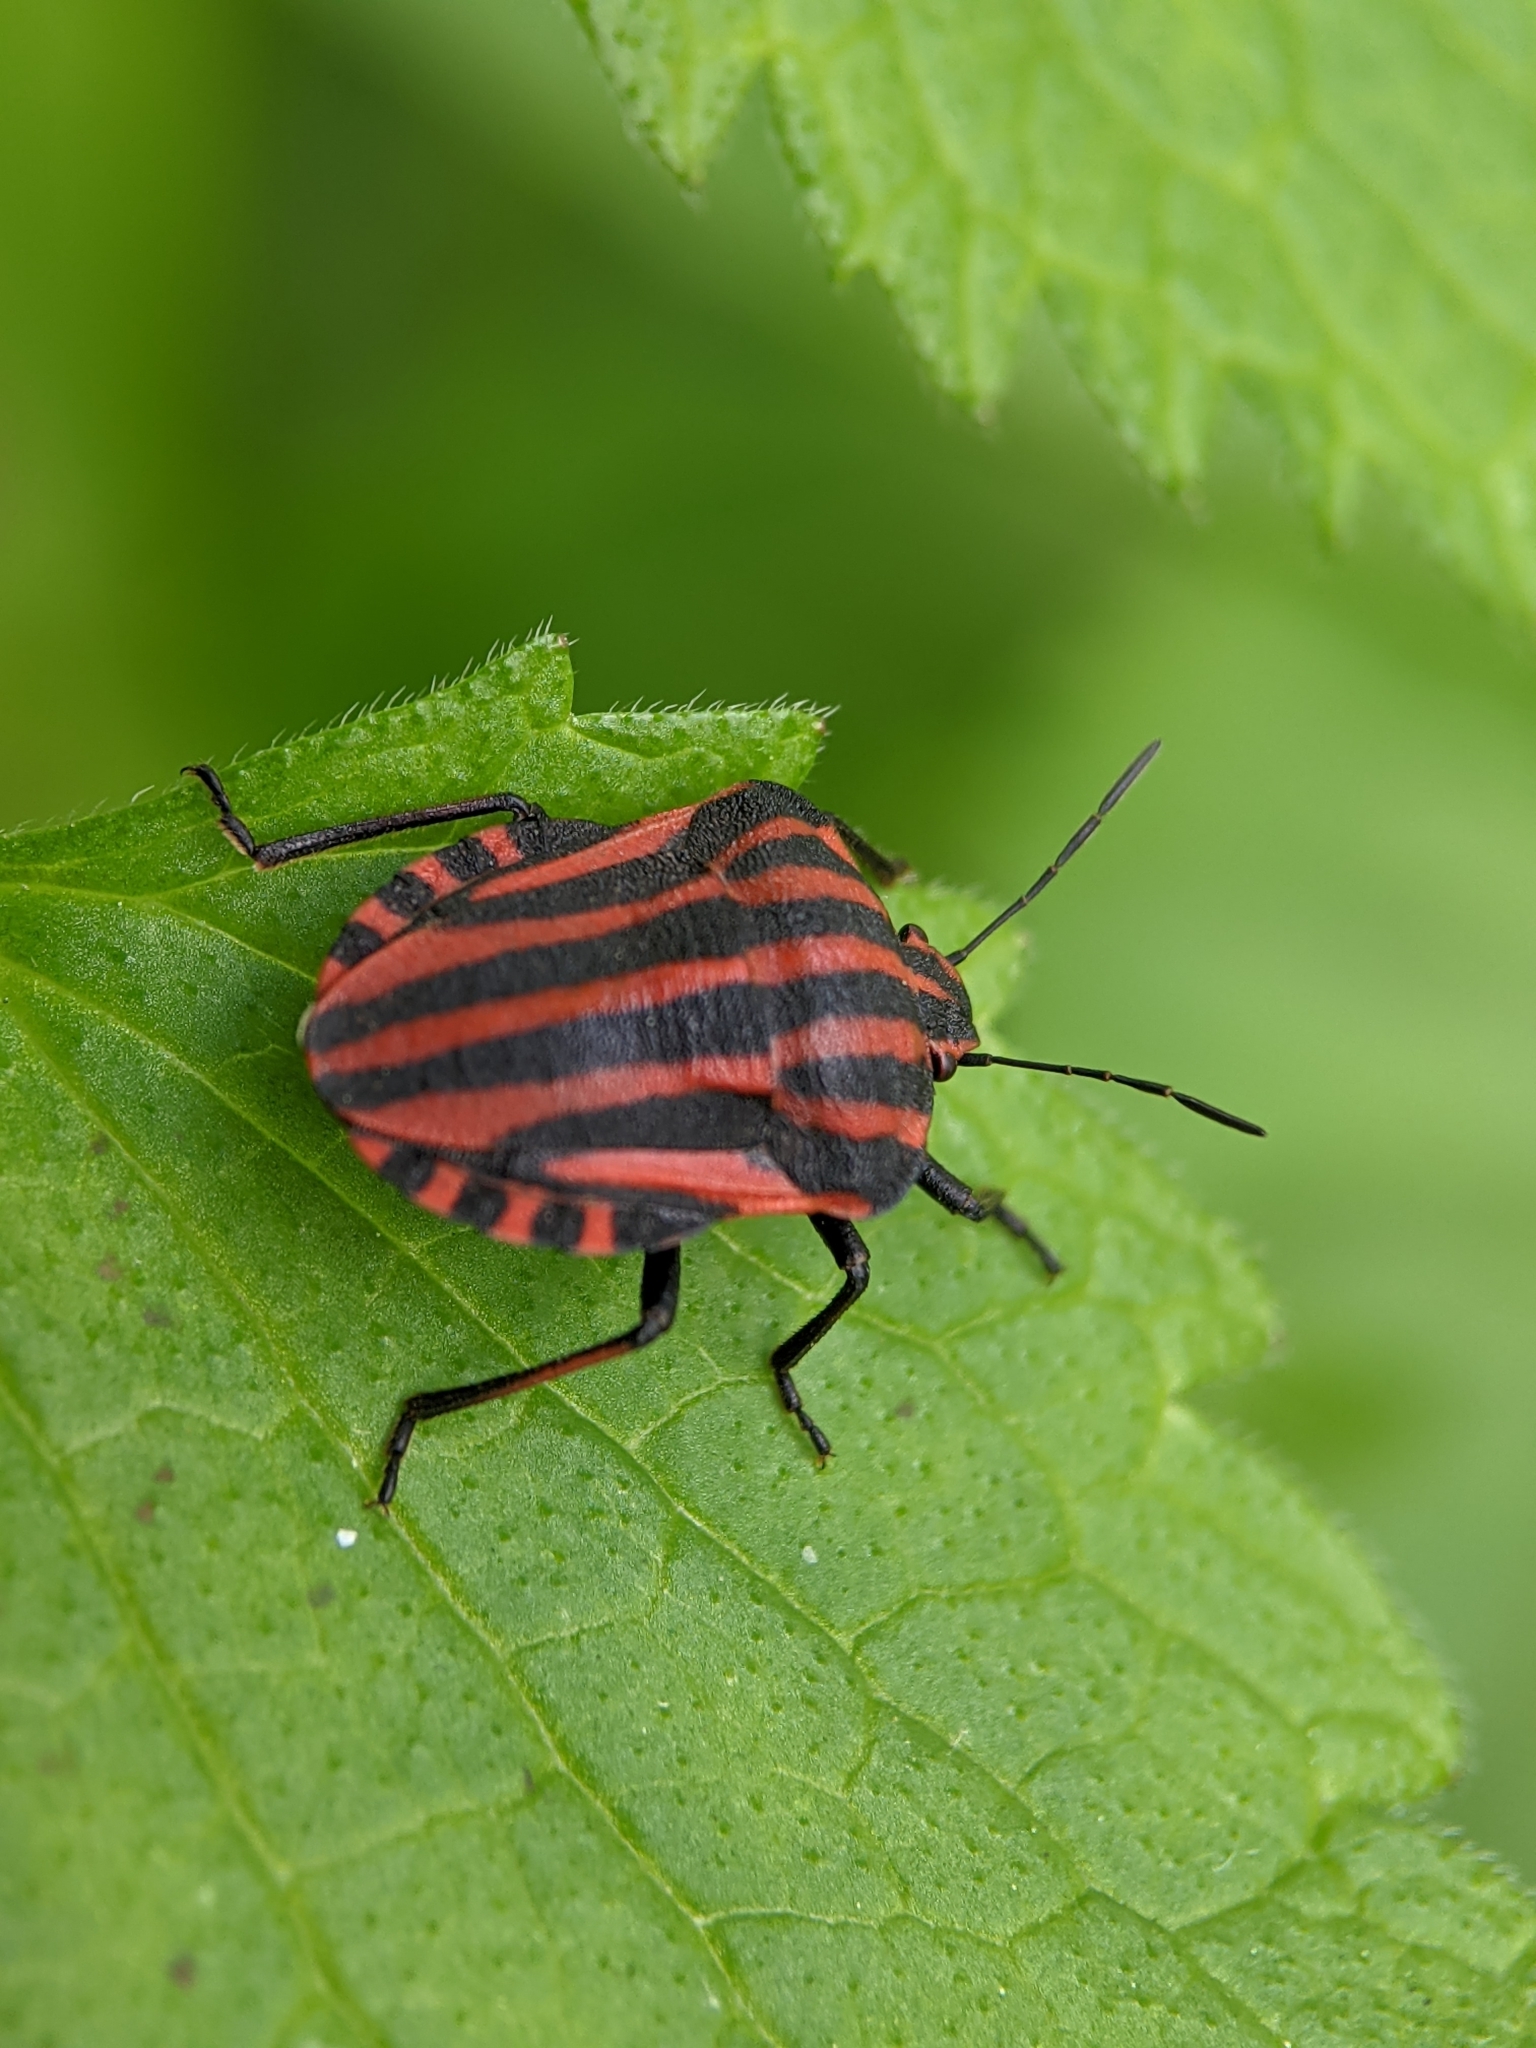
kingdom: Animalia
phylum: Arthropoda
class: Insecta
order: Hemiptera
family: Pentatomidae
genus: Graphosoma
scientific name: Graphosoma italicum
